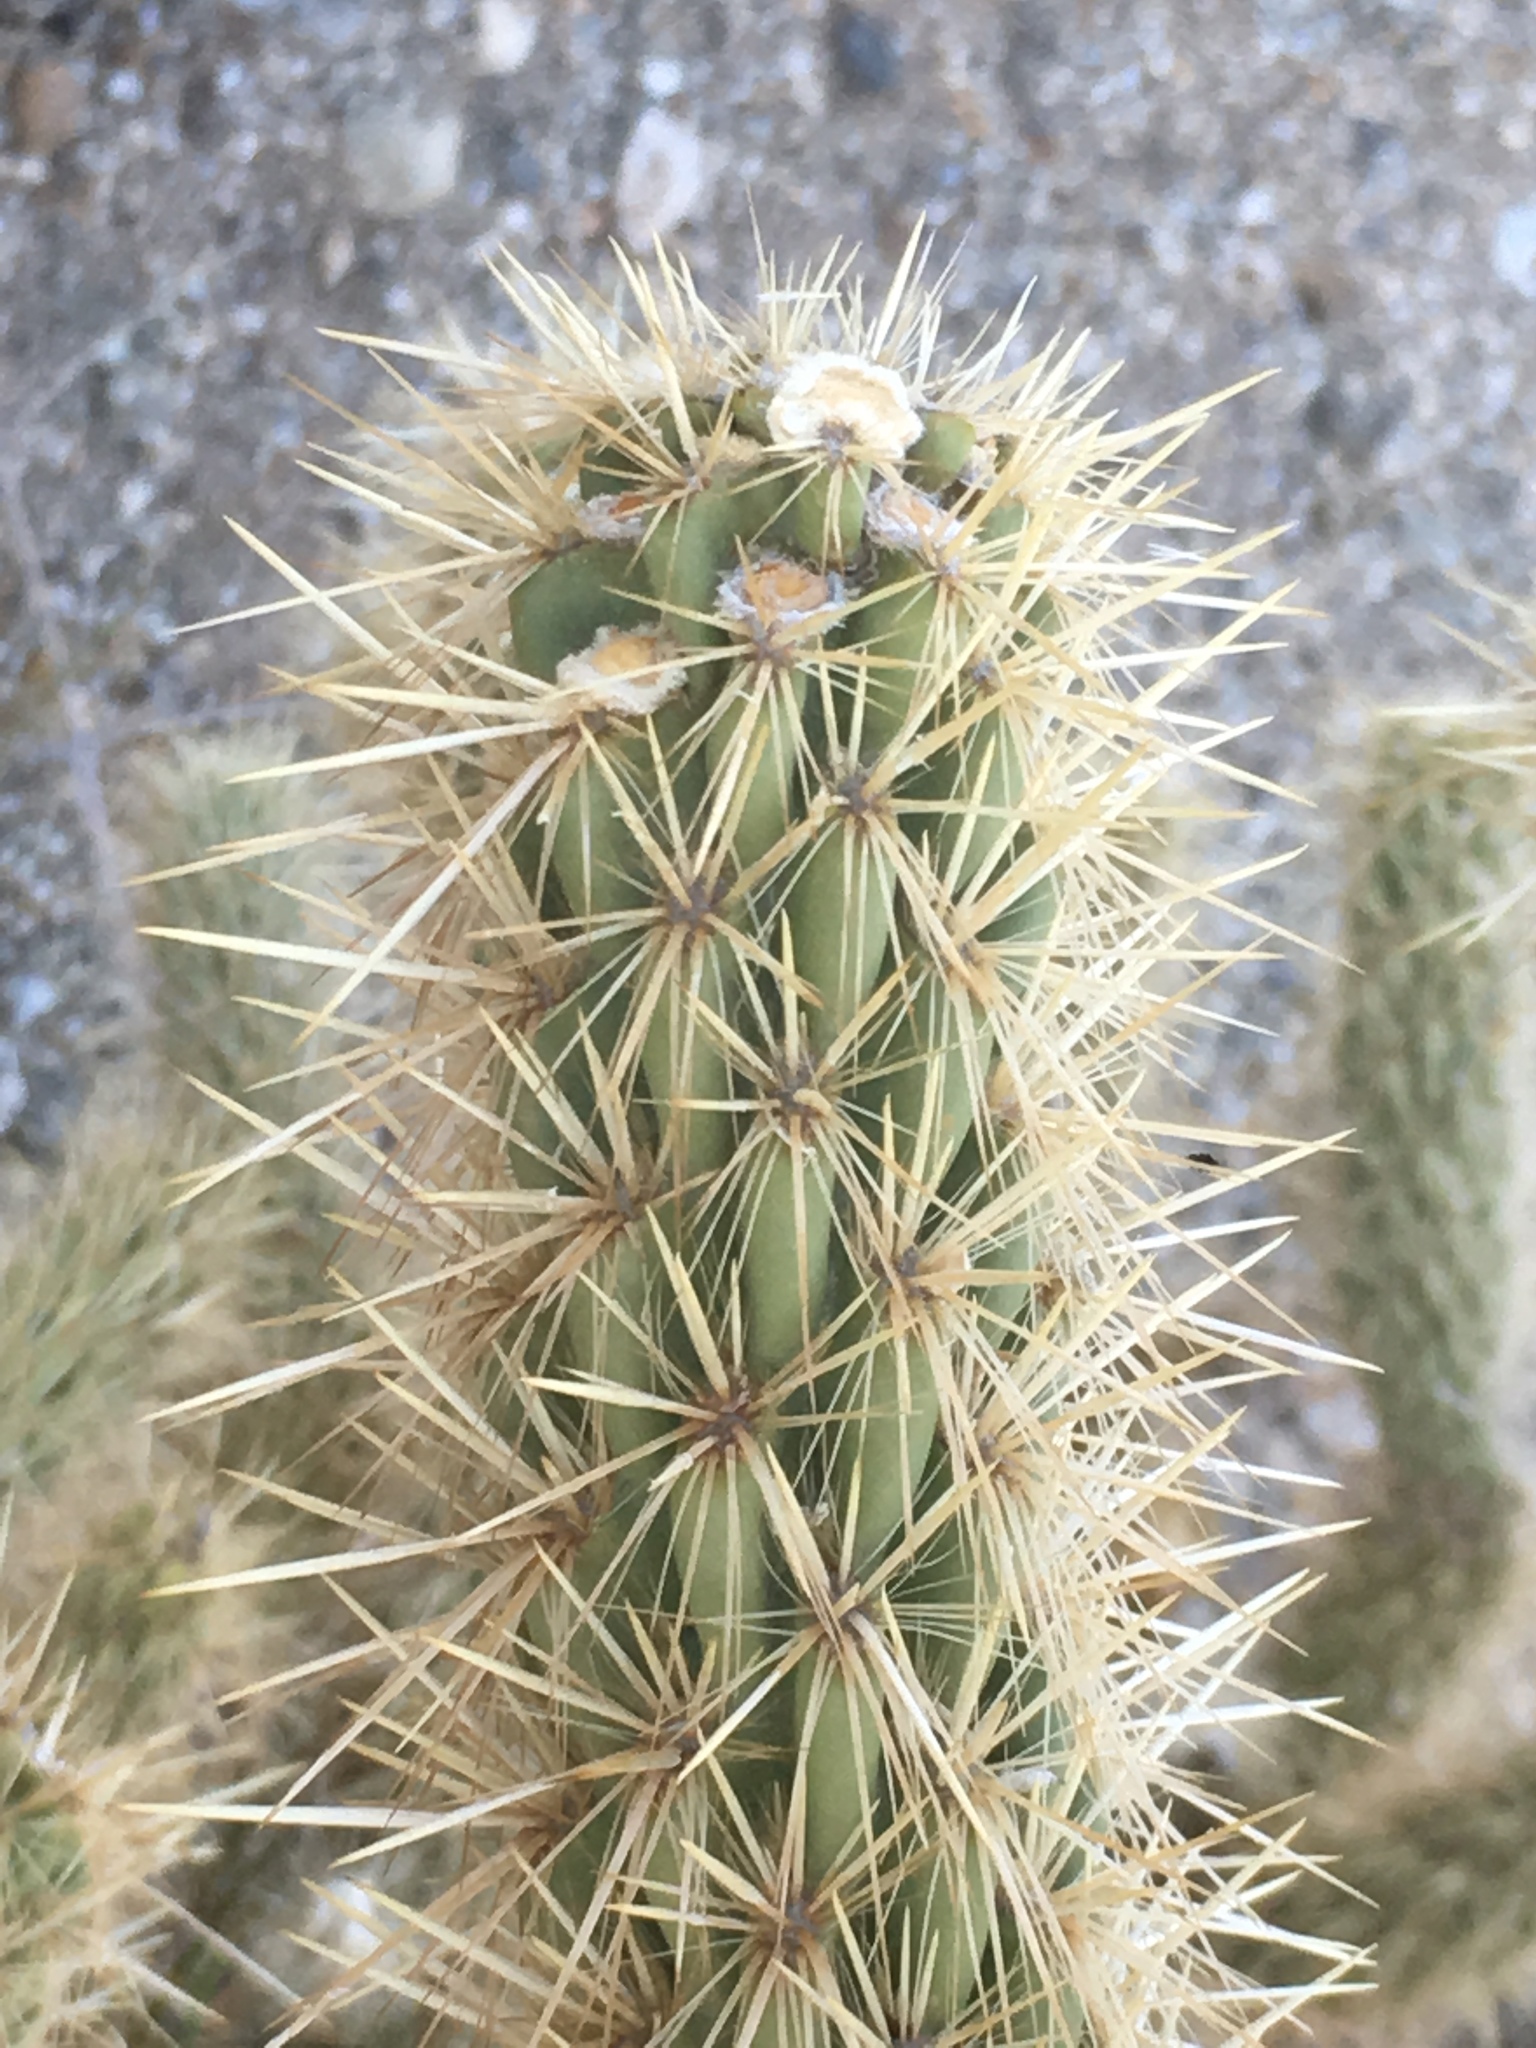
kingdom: Plantae
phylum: Tracheophyta
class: Magnoliopsida
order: Caryophyllales
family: Cactaceae
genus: Cylindropuntia
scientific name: Cylindropuntia ganderi
